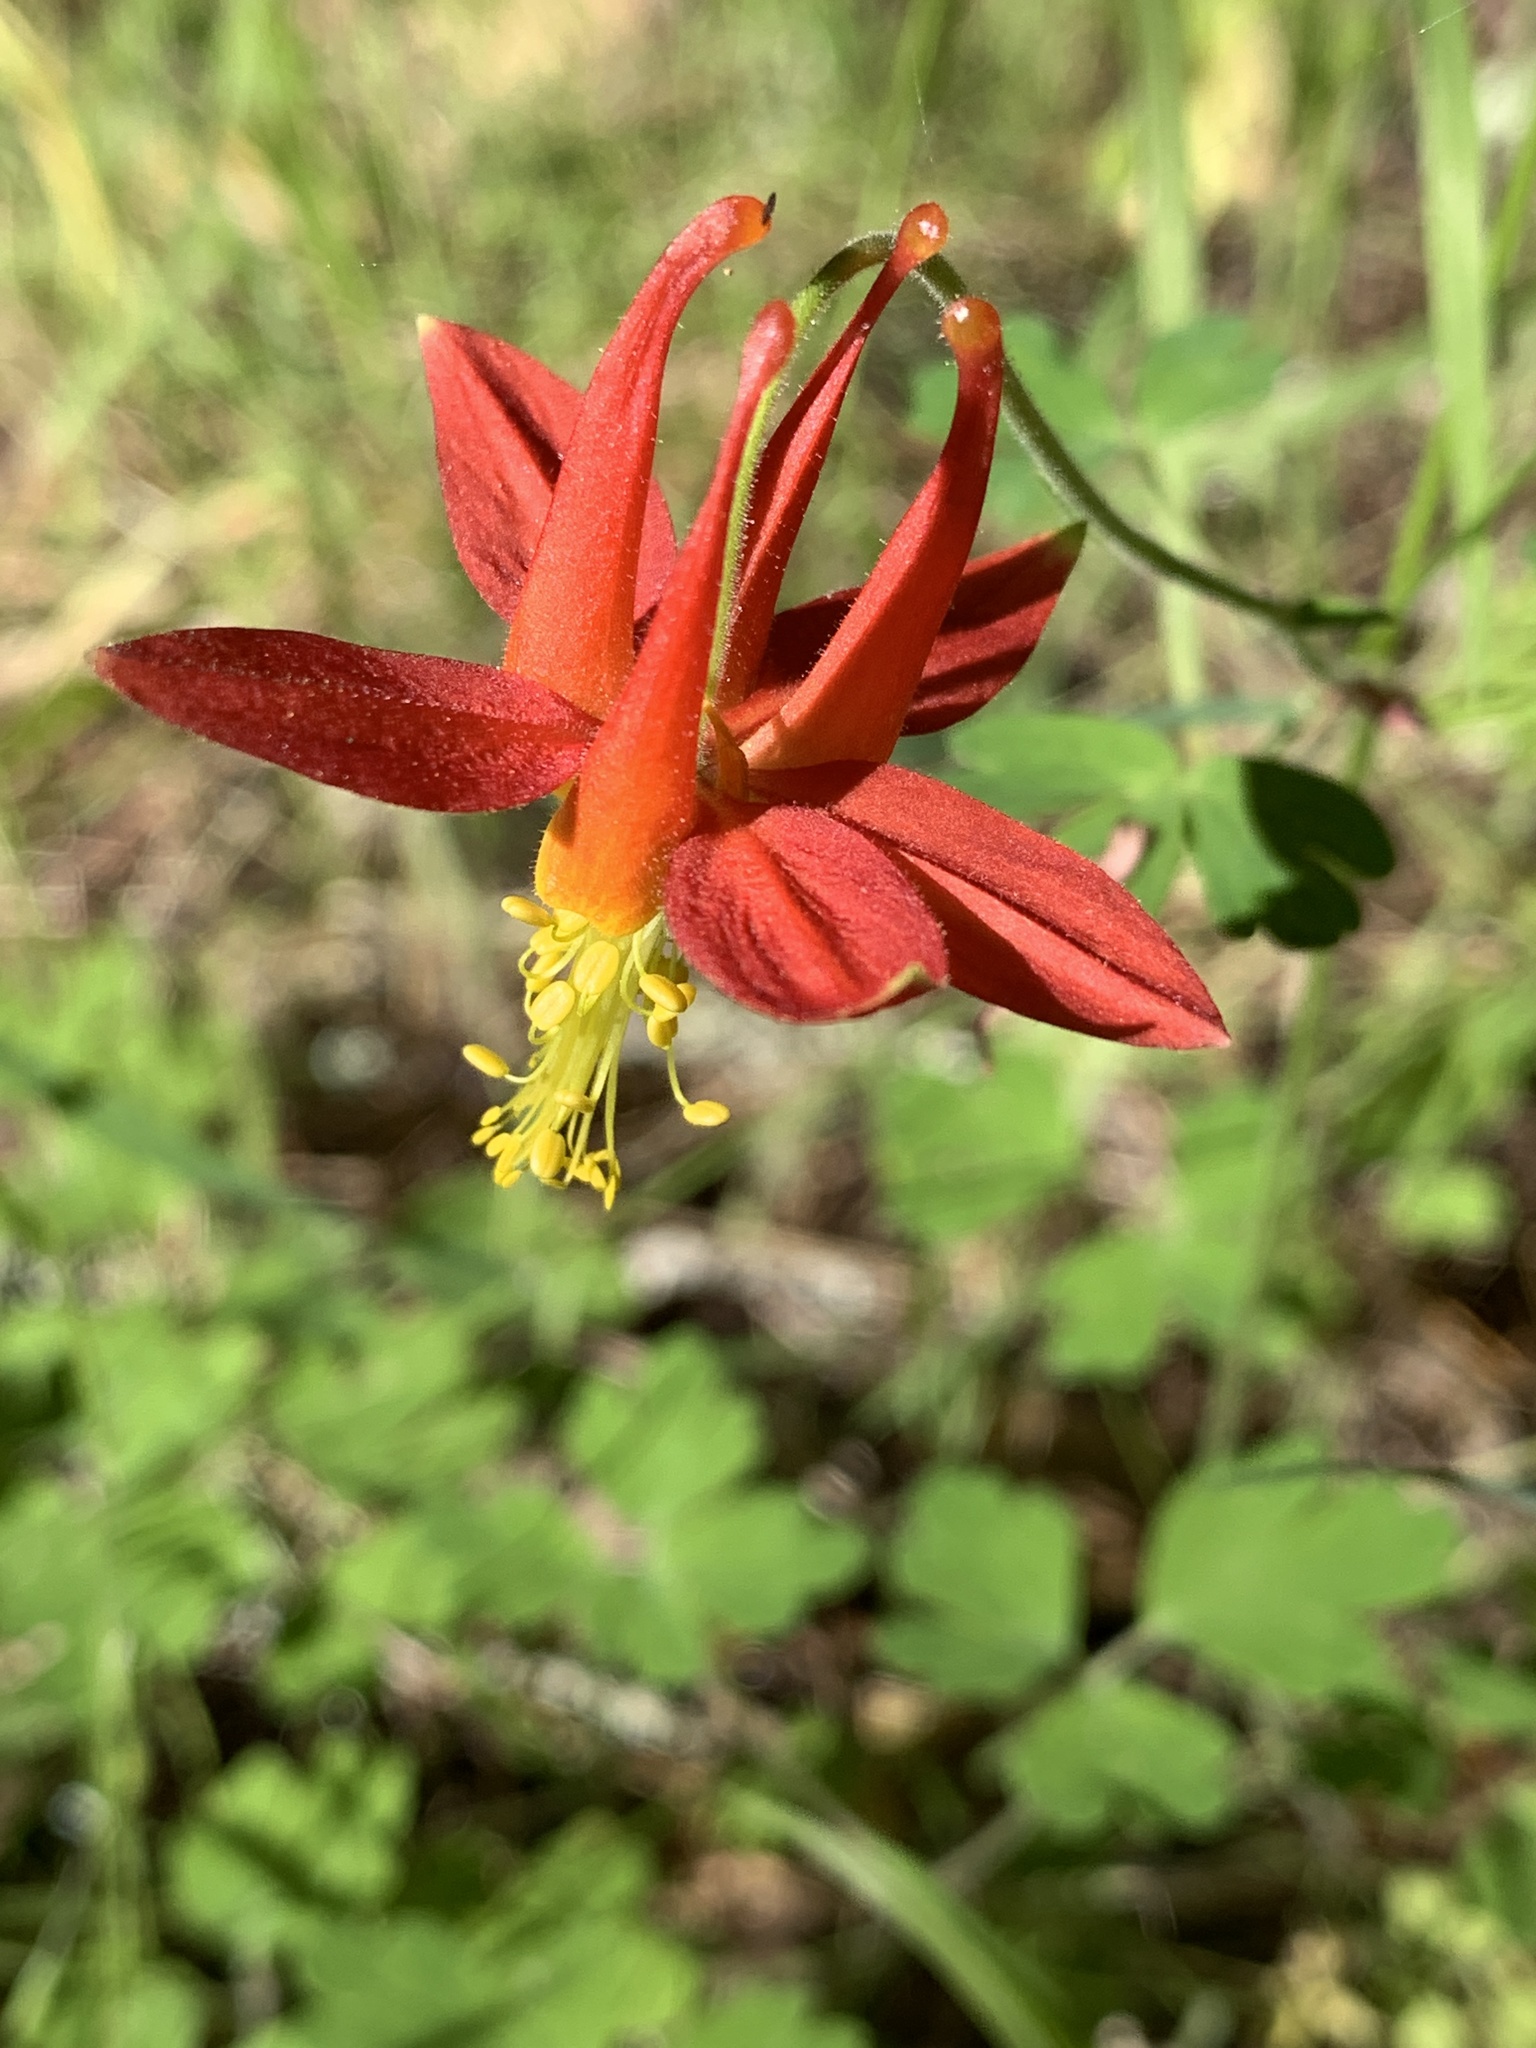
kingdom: Plantae
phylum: Tracheophyta
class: Magnoliopsida
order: Ranunculales
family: Ranunculaceae
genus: Aquilegia
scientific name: Aquilegia formosa
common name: Sitka columbine
